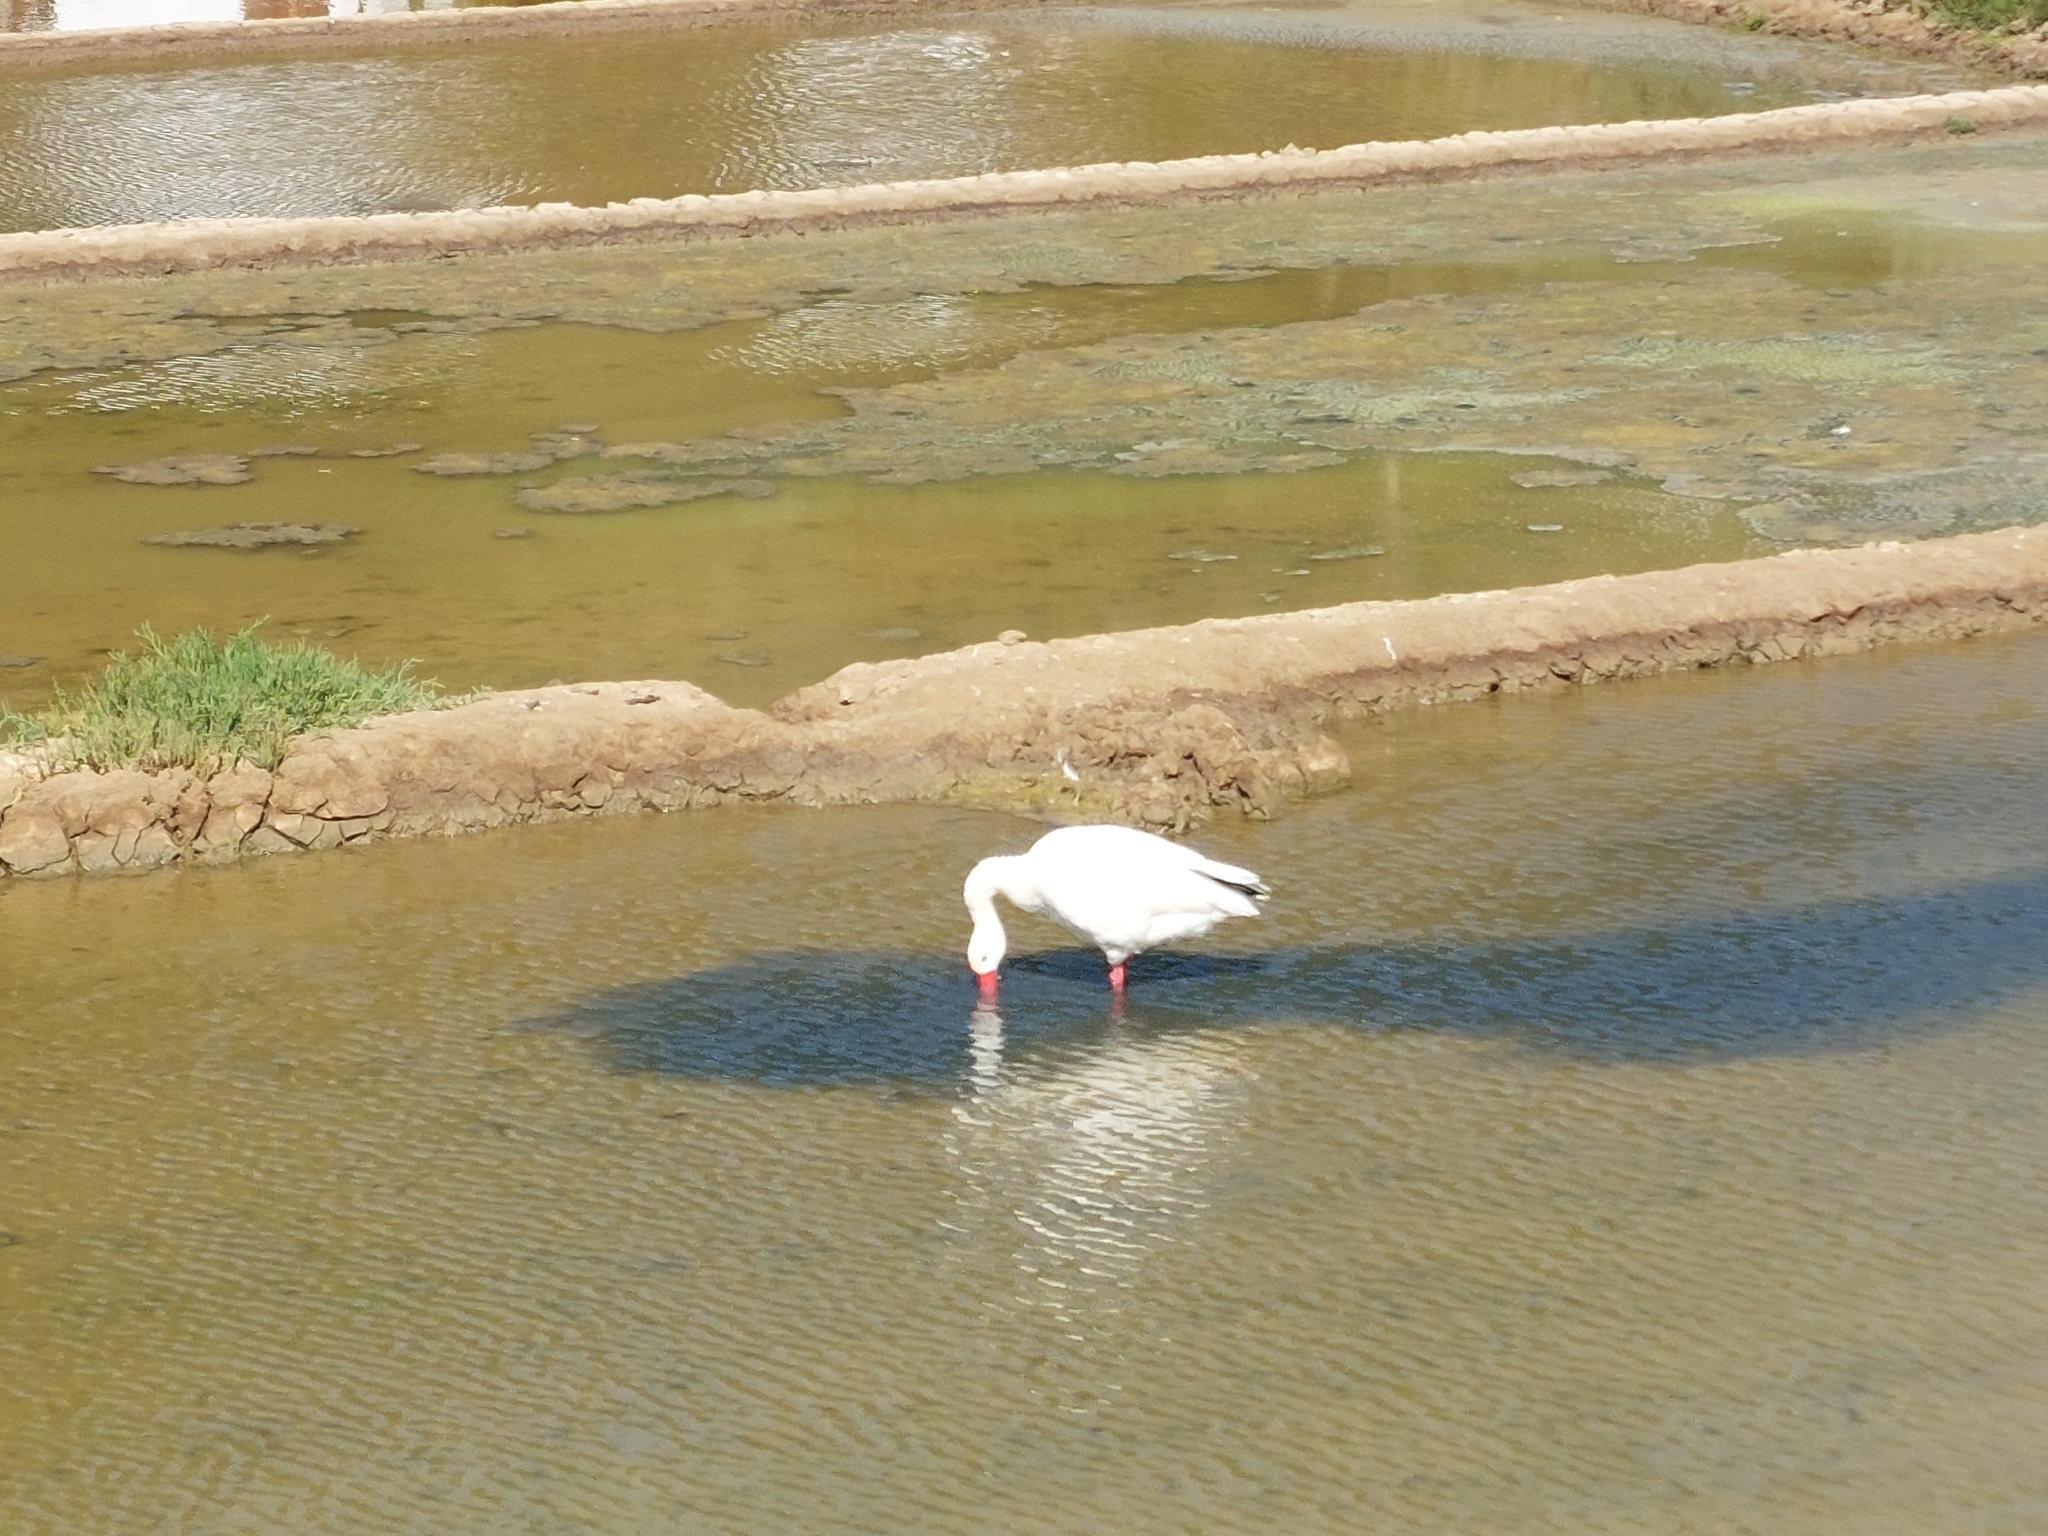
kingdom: Animalia
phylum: Chordata
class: Aves
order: Anseriformes
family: Anatidae
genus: Coscoroba
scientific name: Coscoroba coscoroba
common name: Coscoroba swan
